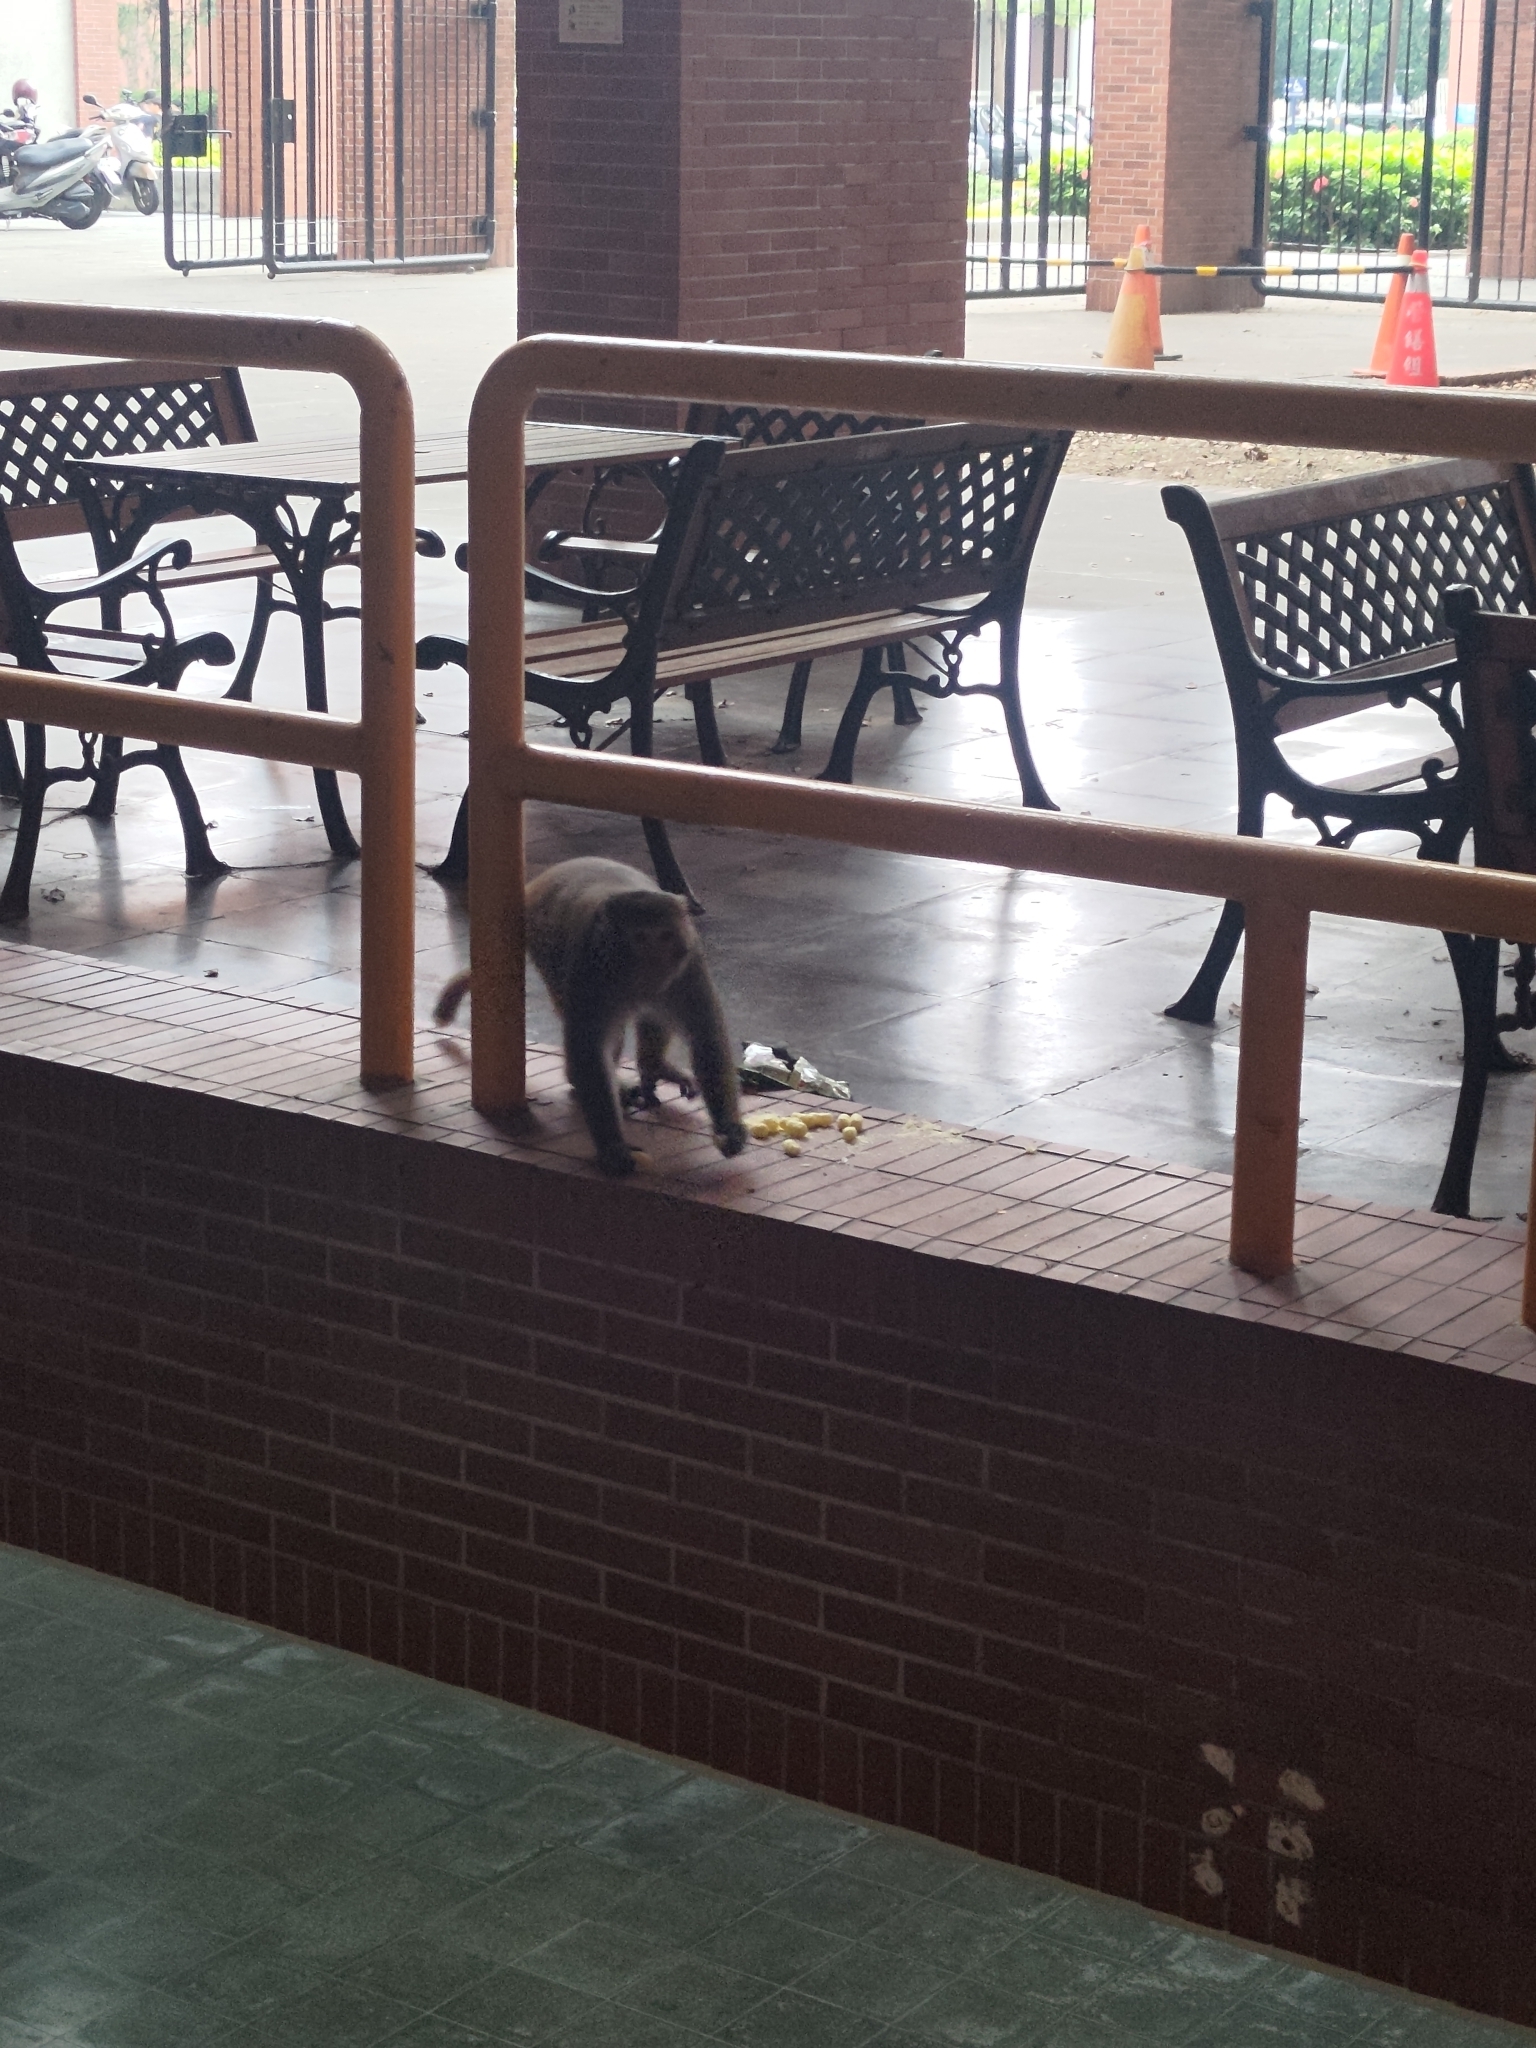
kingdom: Animalia
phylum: Chordata
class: Mammalia
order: Primates
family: Cercopithecidae
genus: Macaca
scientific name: Macaca cyclopis
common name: Formosan rock macaque
